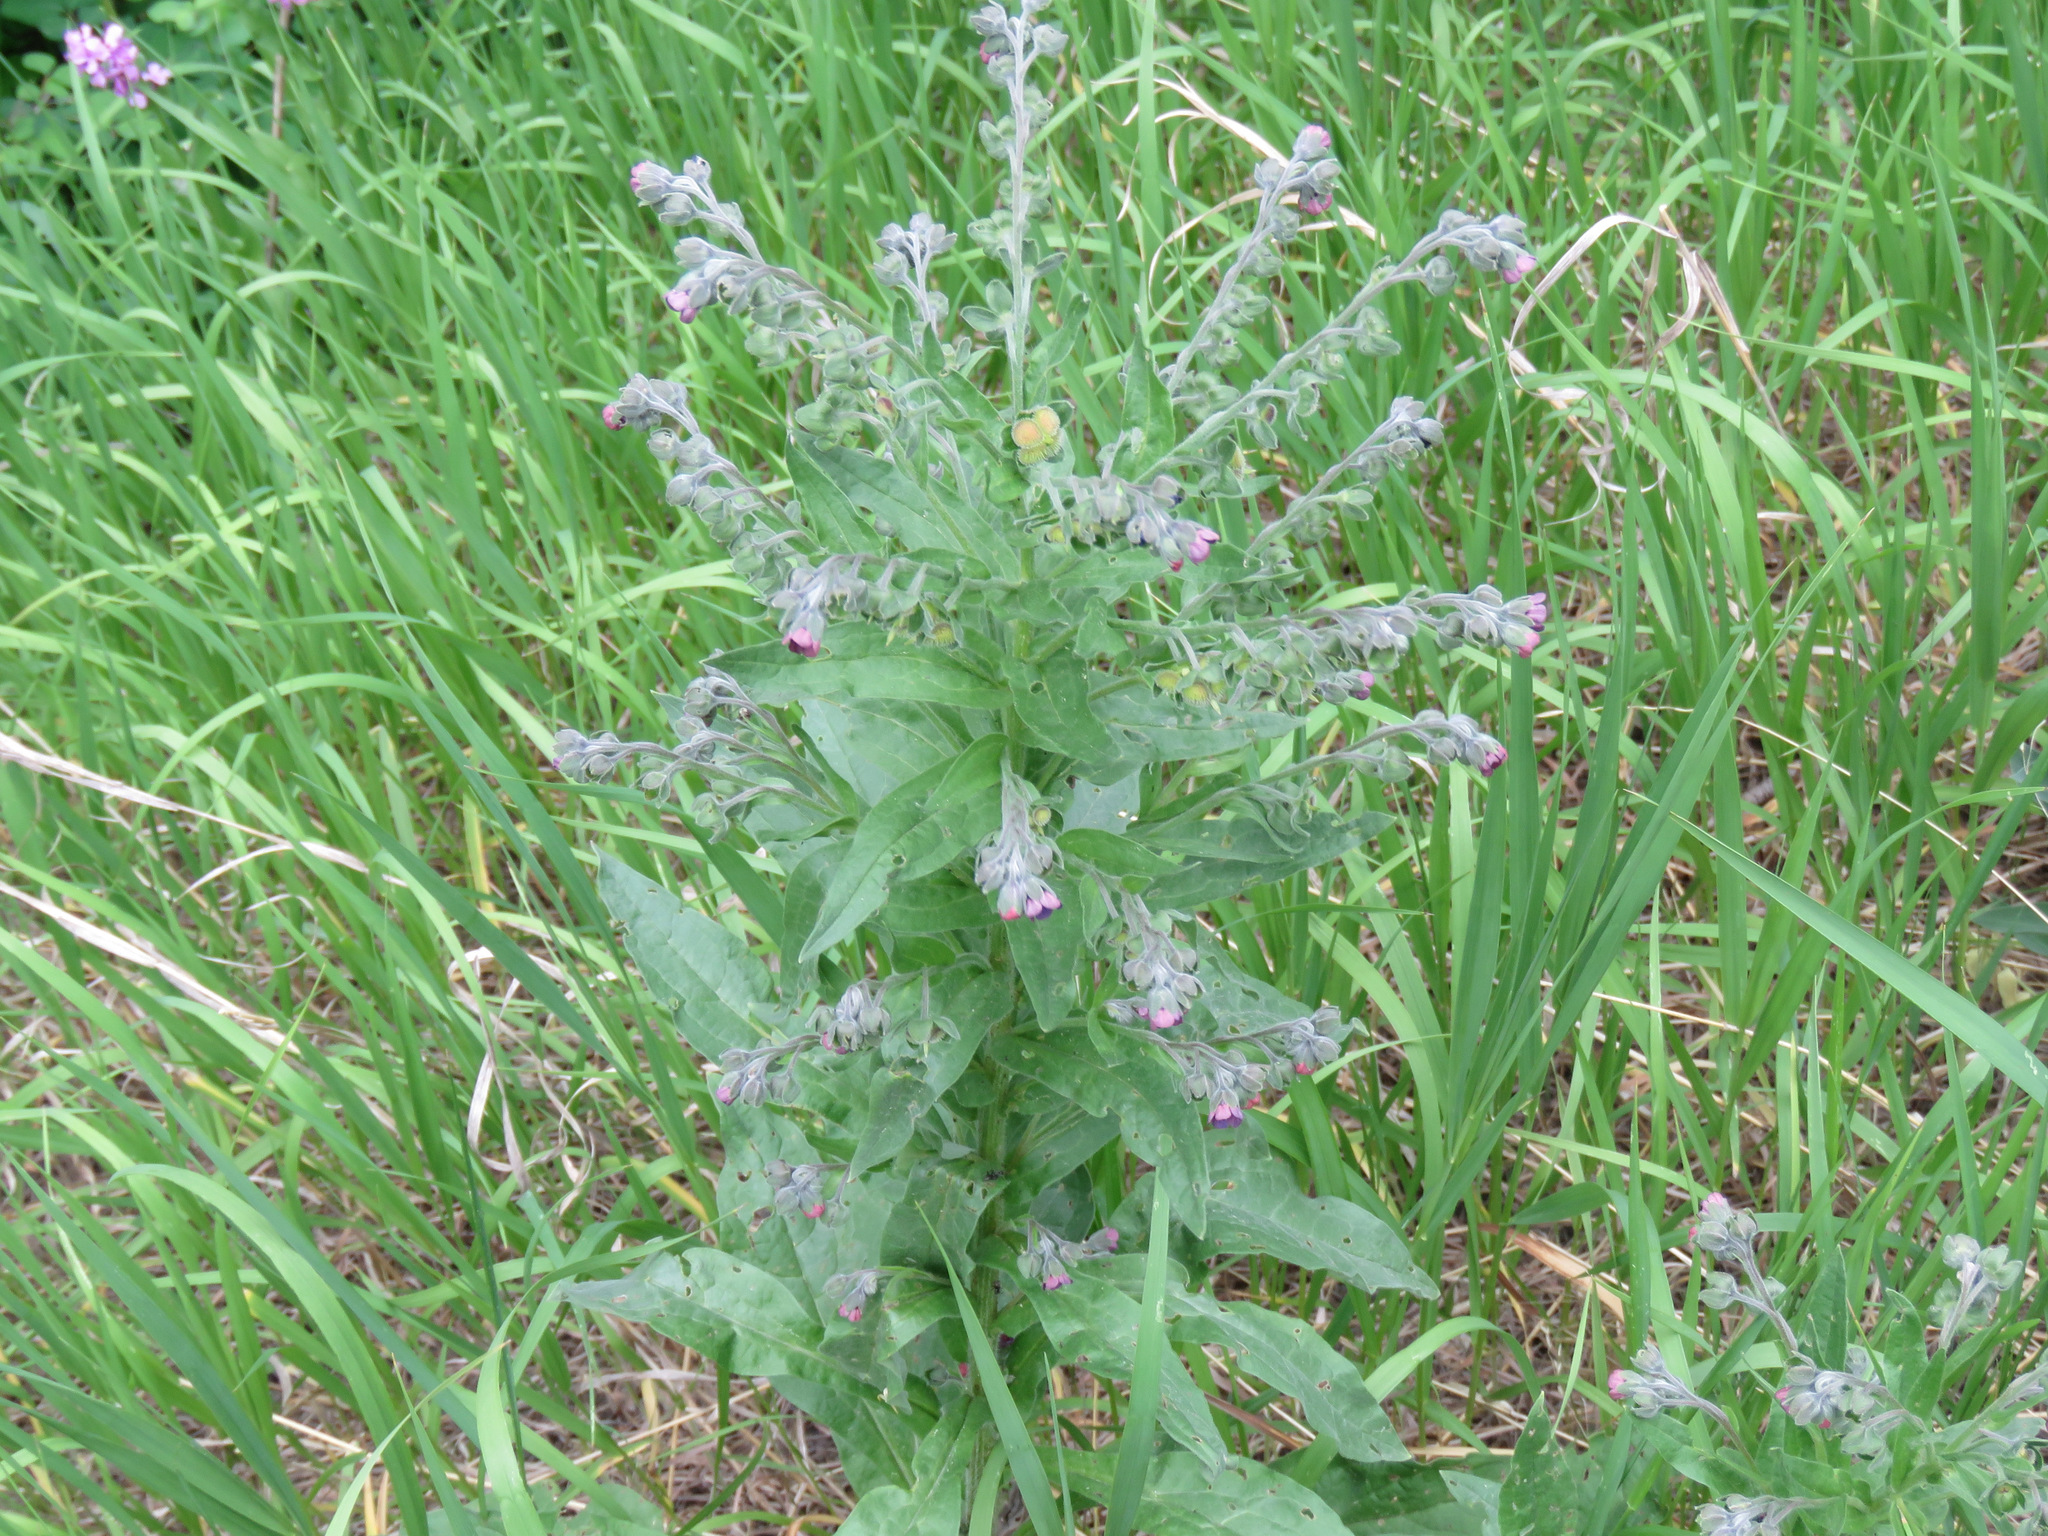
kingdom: Plantae
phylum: Tracheophyta
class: Magnoliopsida
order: Boraginales
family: Boraginaceae
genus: Cynoglossum
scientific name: Cynoglossum officinale
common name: Hound's-tongue
